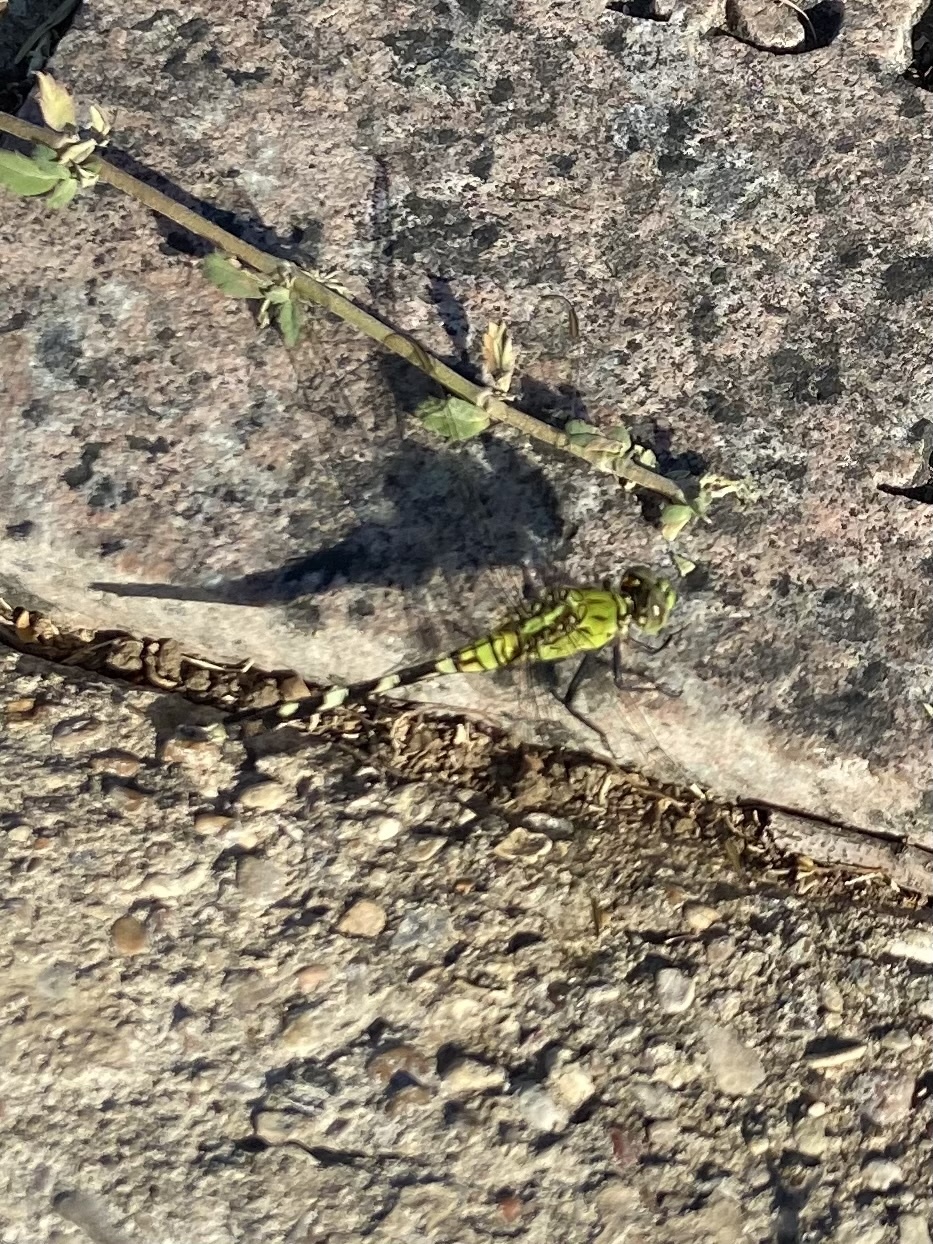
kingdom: Animalia
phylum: Arthropoda
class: Insecta
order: Odonata
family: Libellulidae
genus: Erythemis
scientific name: Erythemis simplicicollis
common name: Eastern pondhawk
